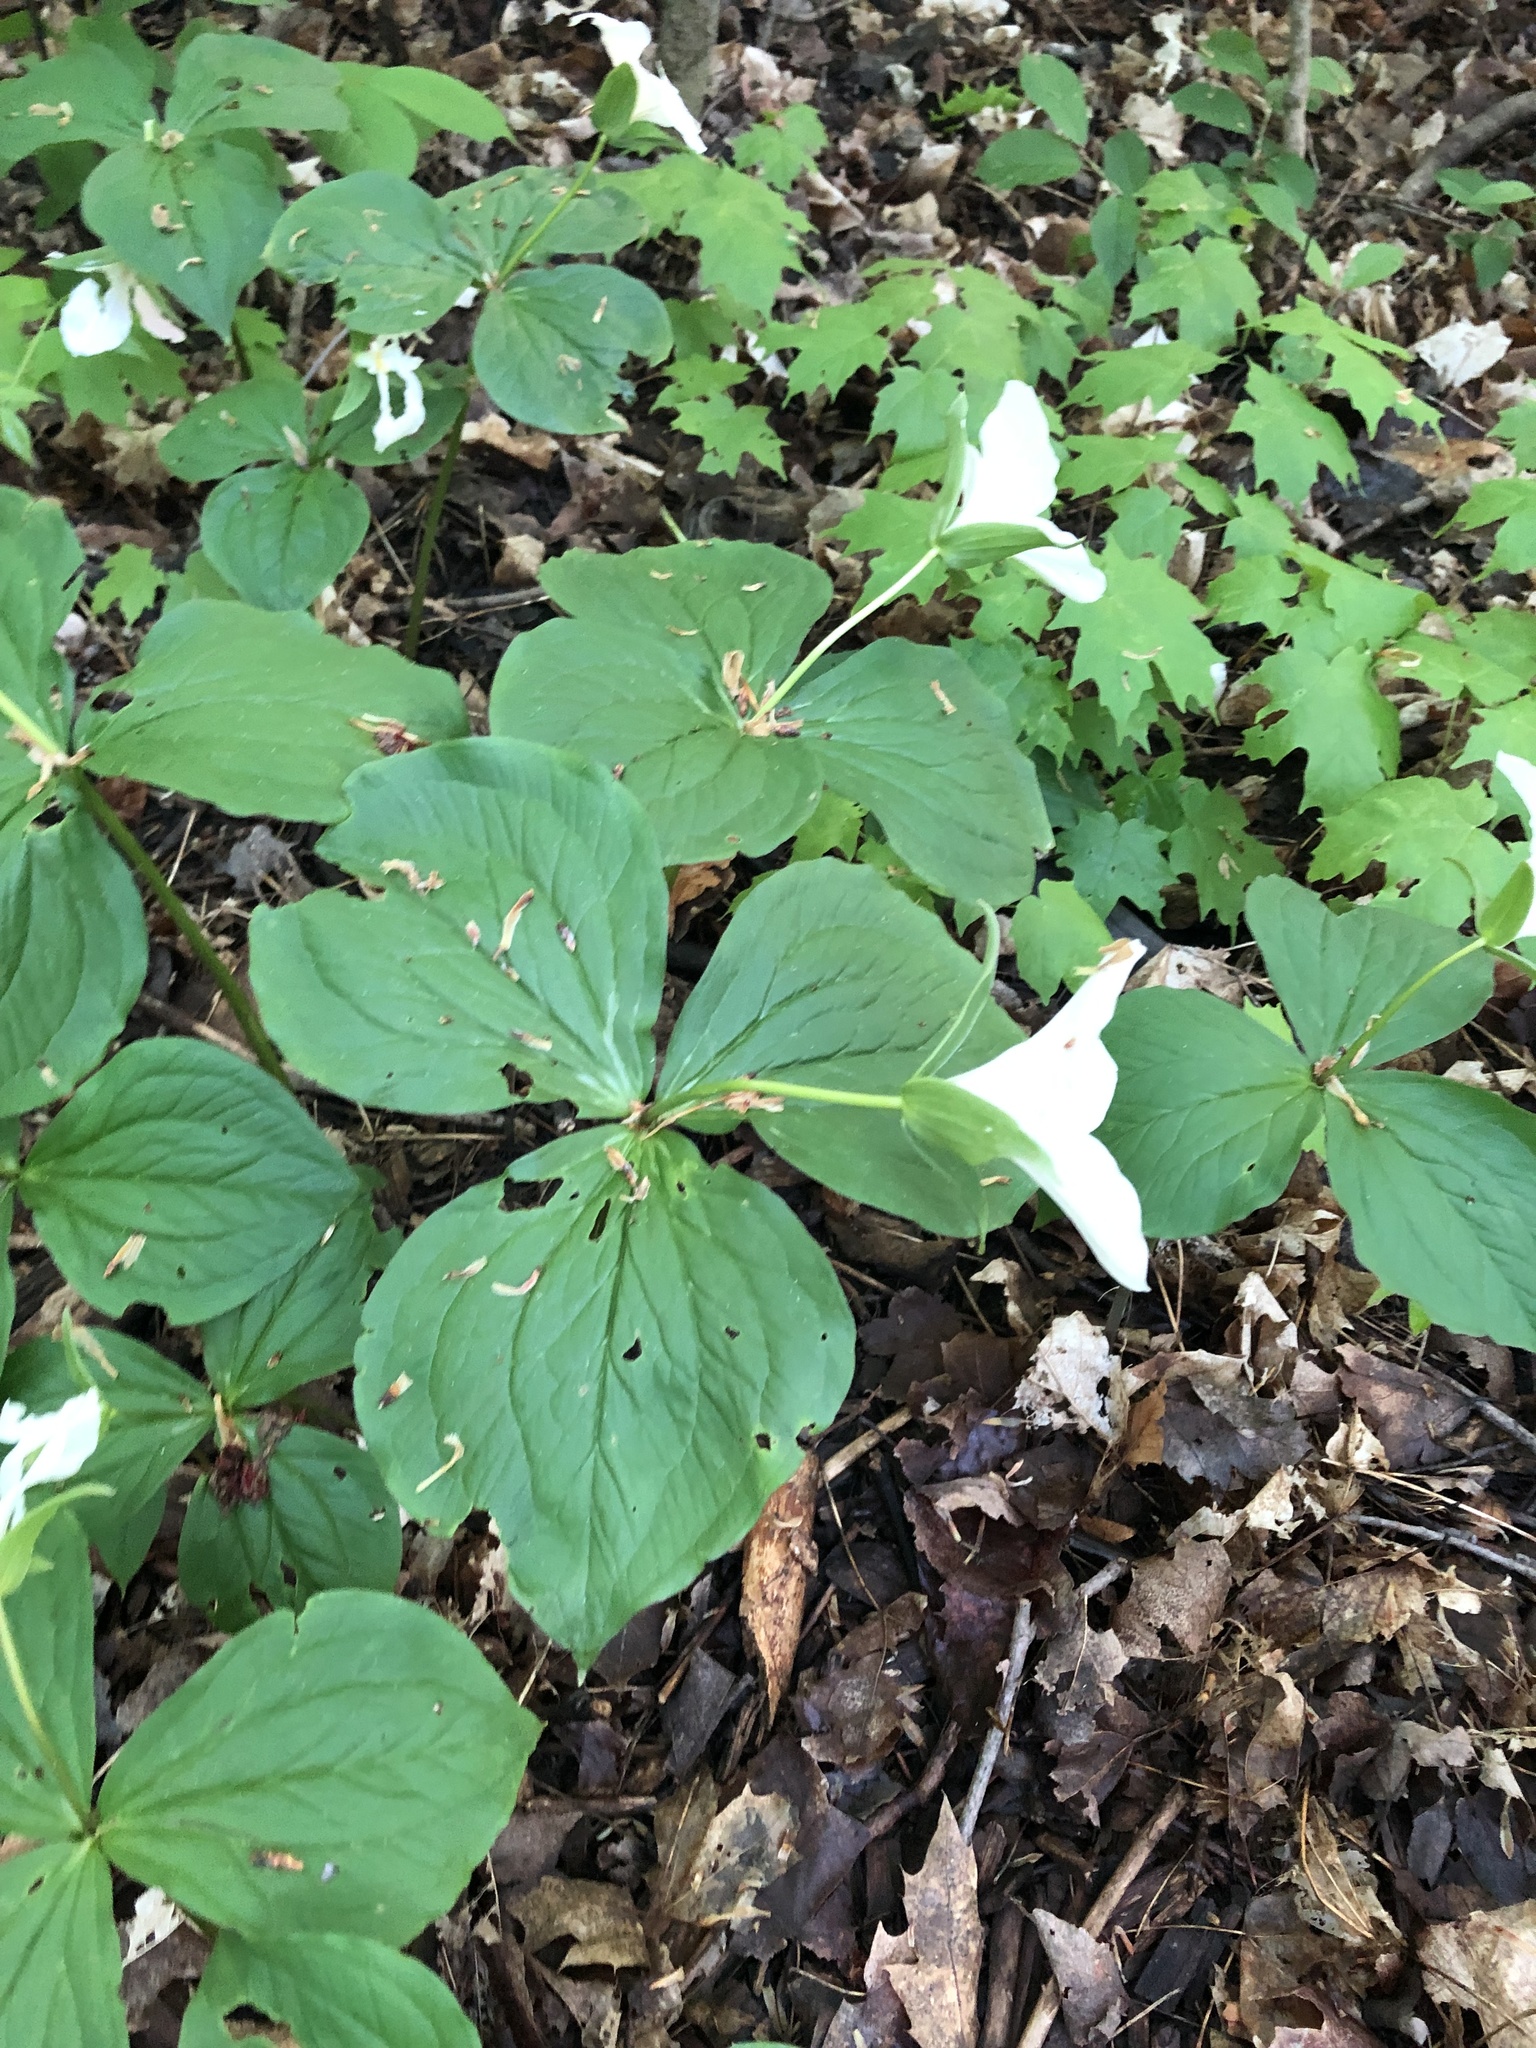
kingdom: Plantae
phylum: Tracheophyta
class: Liliopsida
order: Liliales
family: Melanthiaceae
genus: Trillium
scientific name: Trillium grandiflorum
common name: Great white trillium
